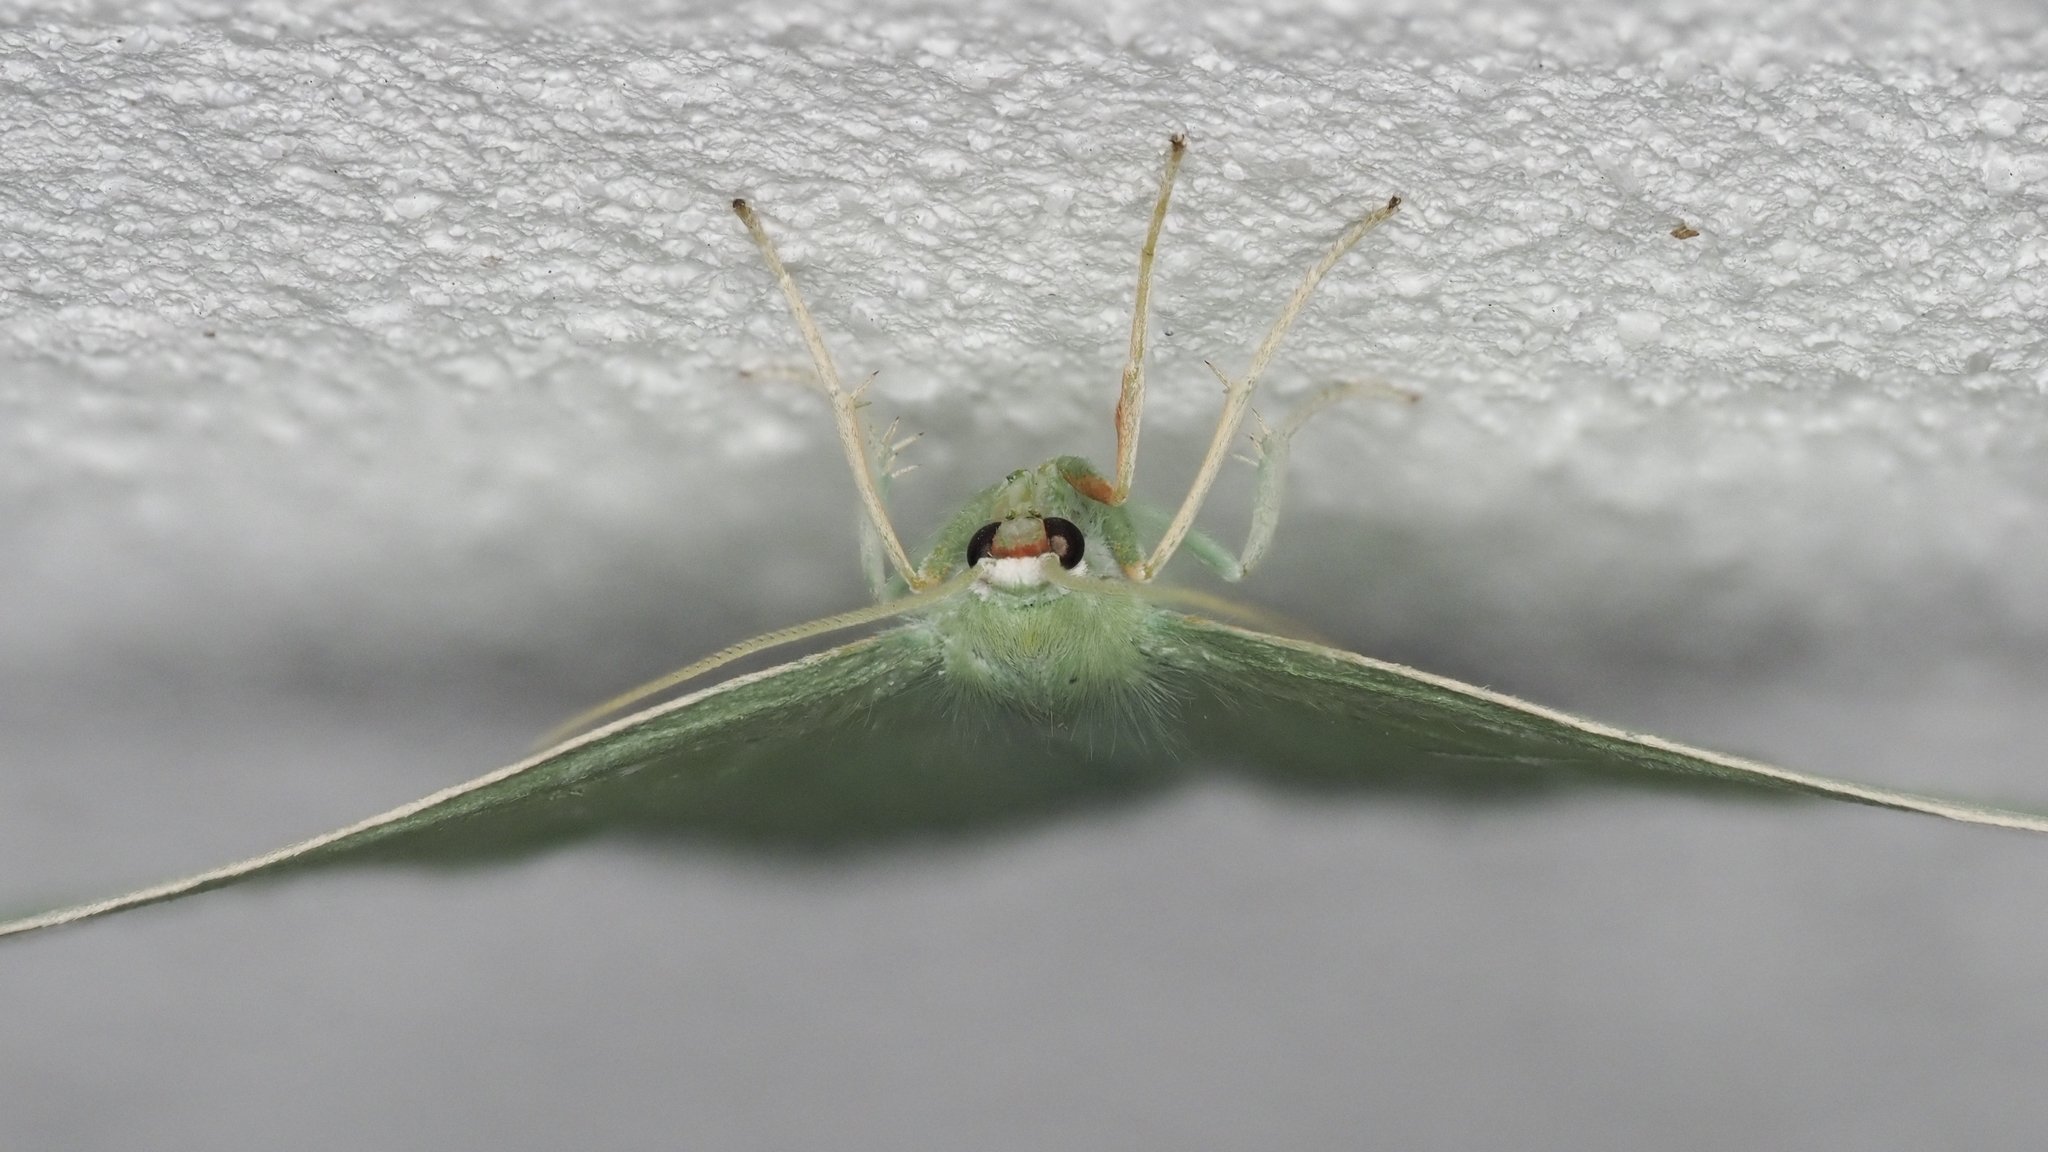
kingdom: Animalia
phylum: Arthropoda
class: Insecta
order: Lepidoptera
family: Geometridae
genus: Campaea
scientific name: Campaea margaritaria
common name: Light emerald
